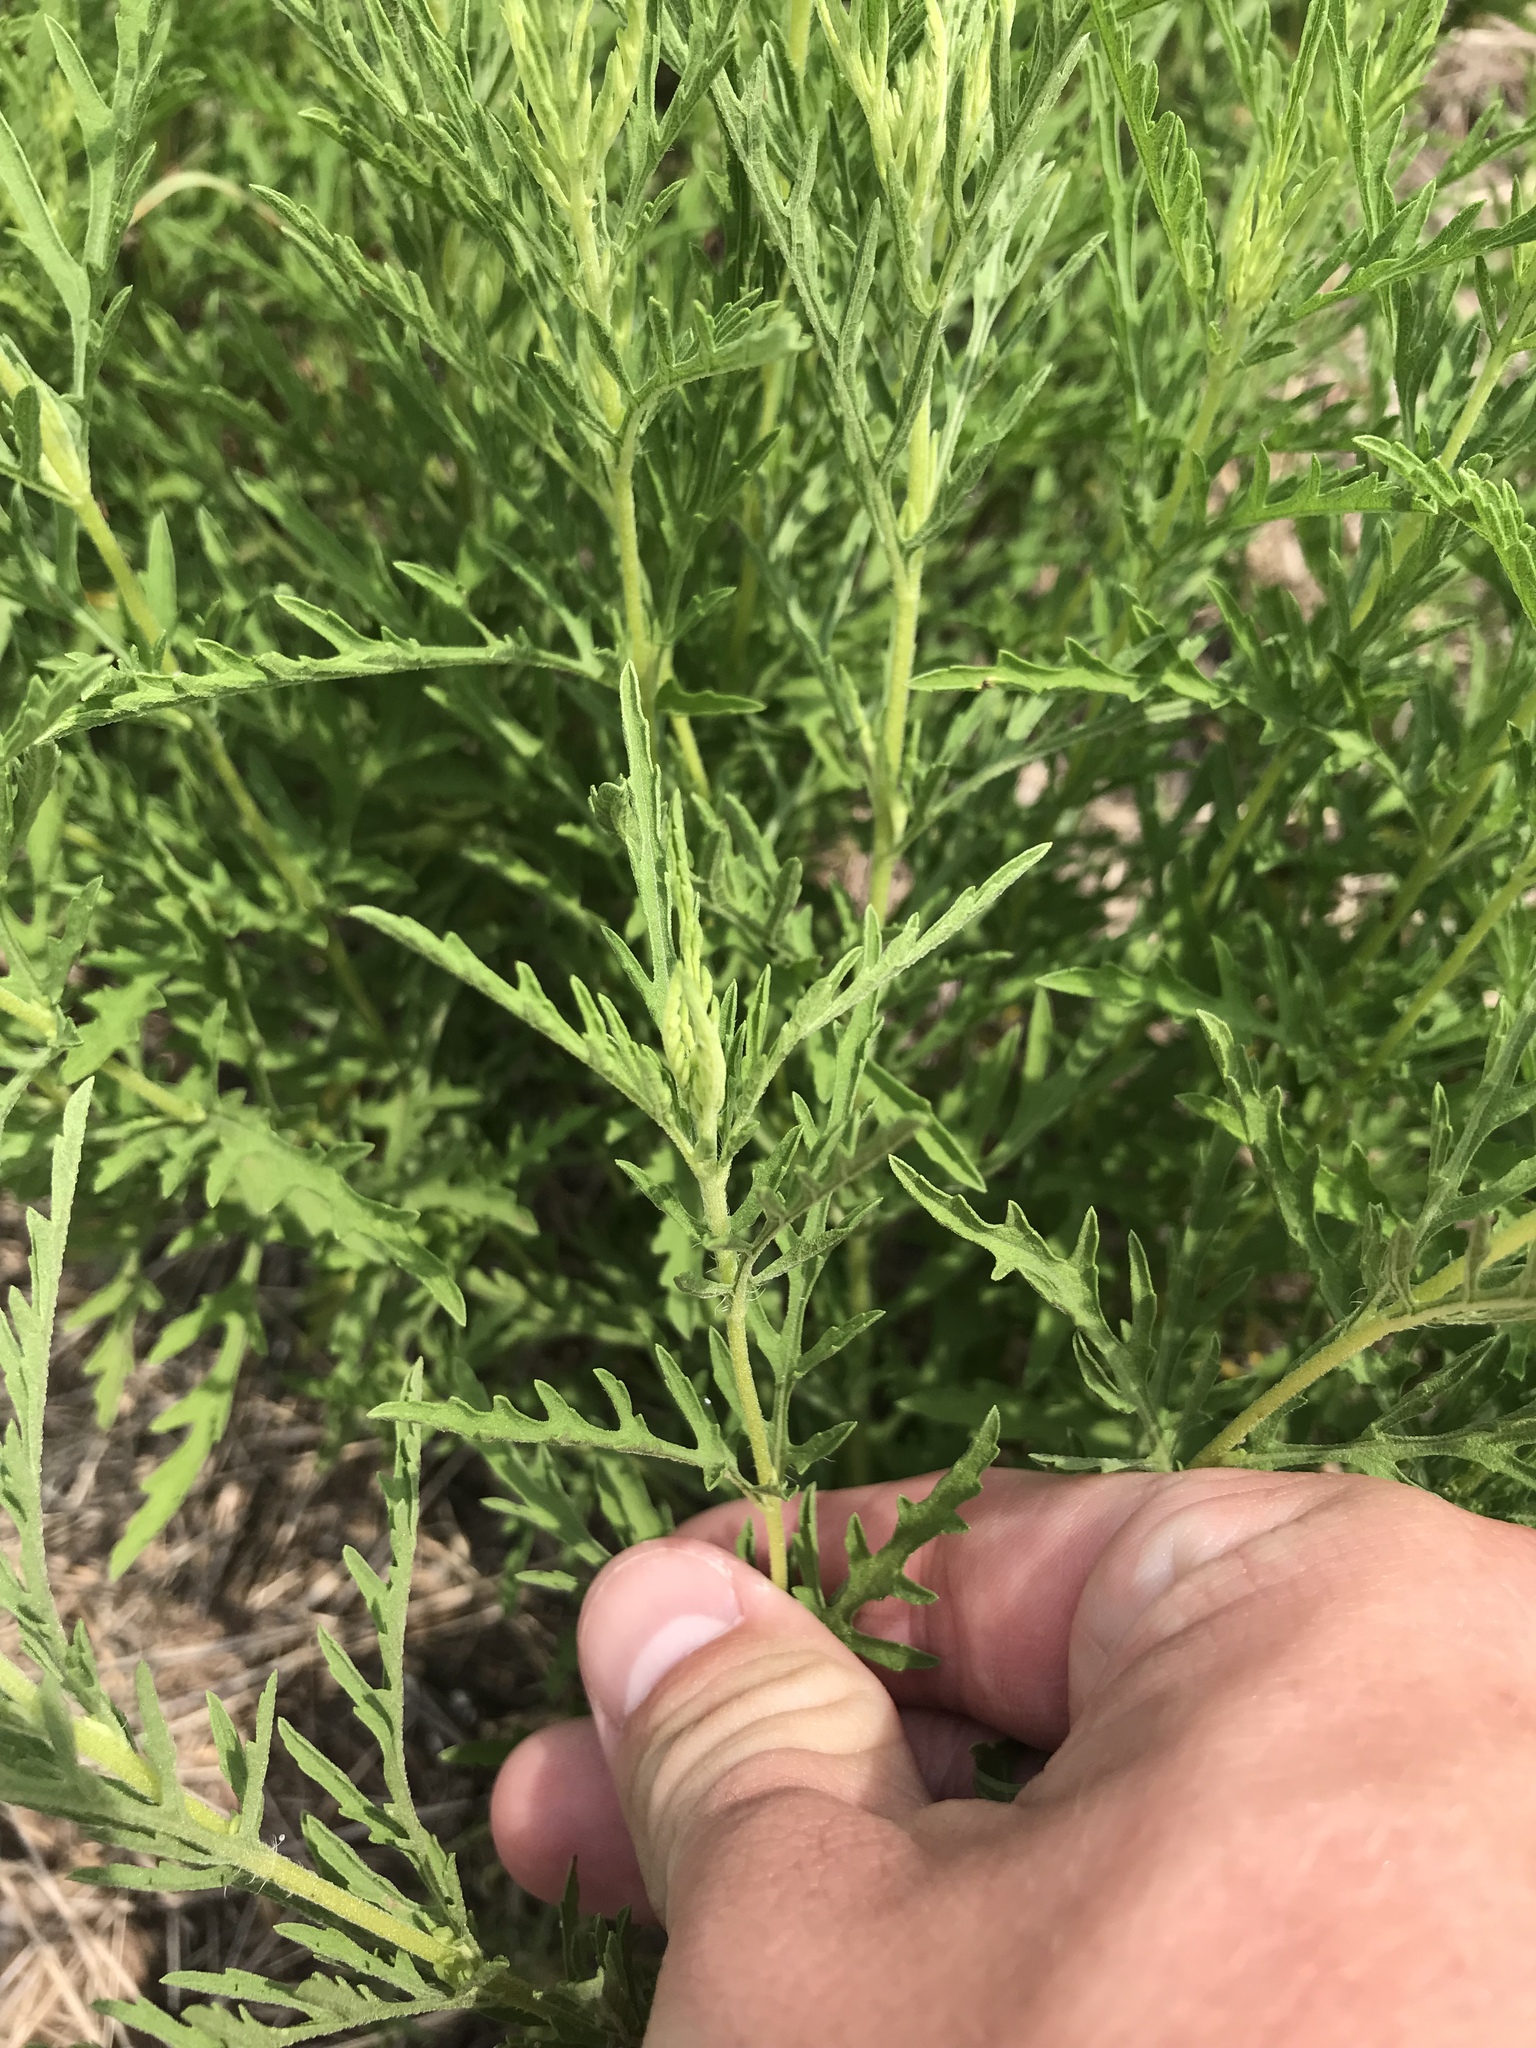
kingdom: Plantae
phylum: Tracheophyta
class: Magnoliopsida
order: Asterales
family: Asteraceae
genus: Ambrosia
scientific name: Ambrosia psilostachya
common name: Perennial ragweed
